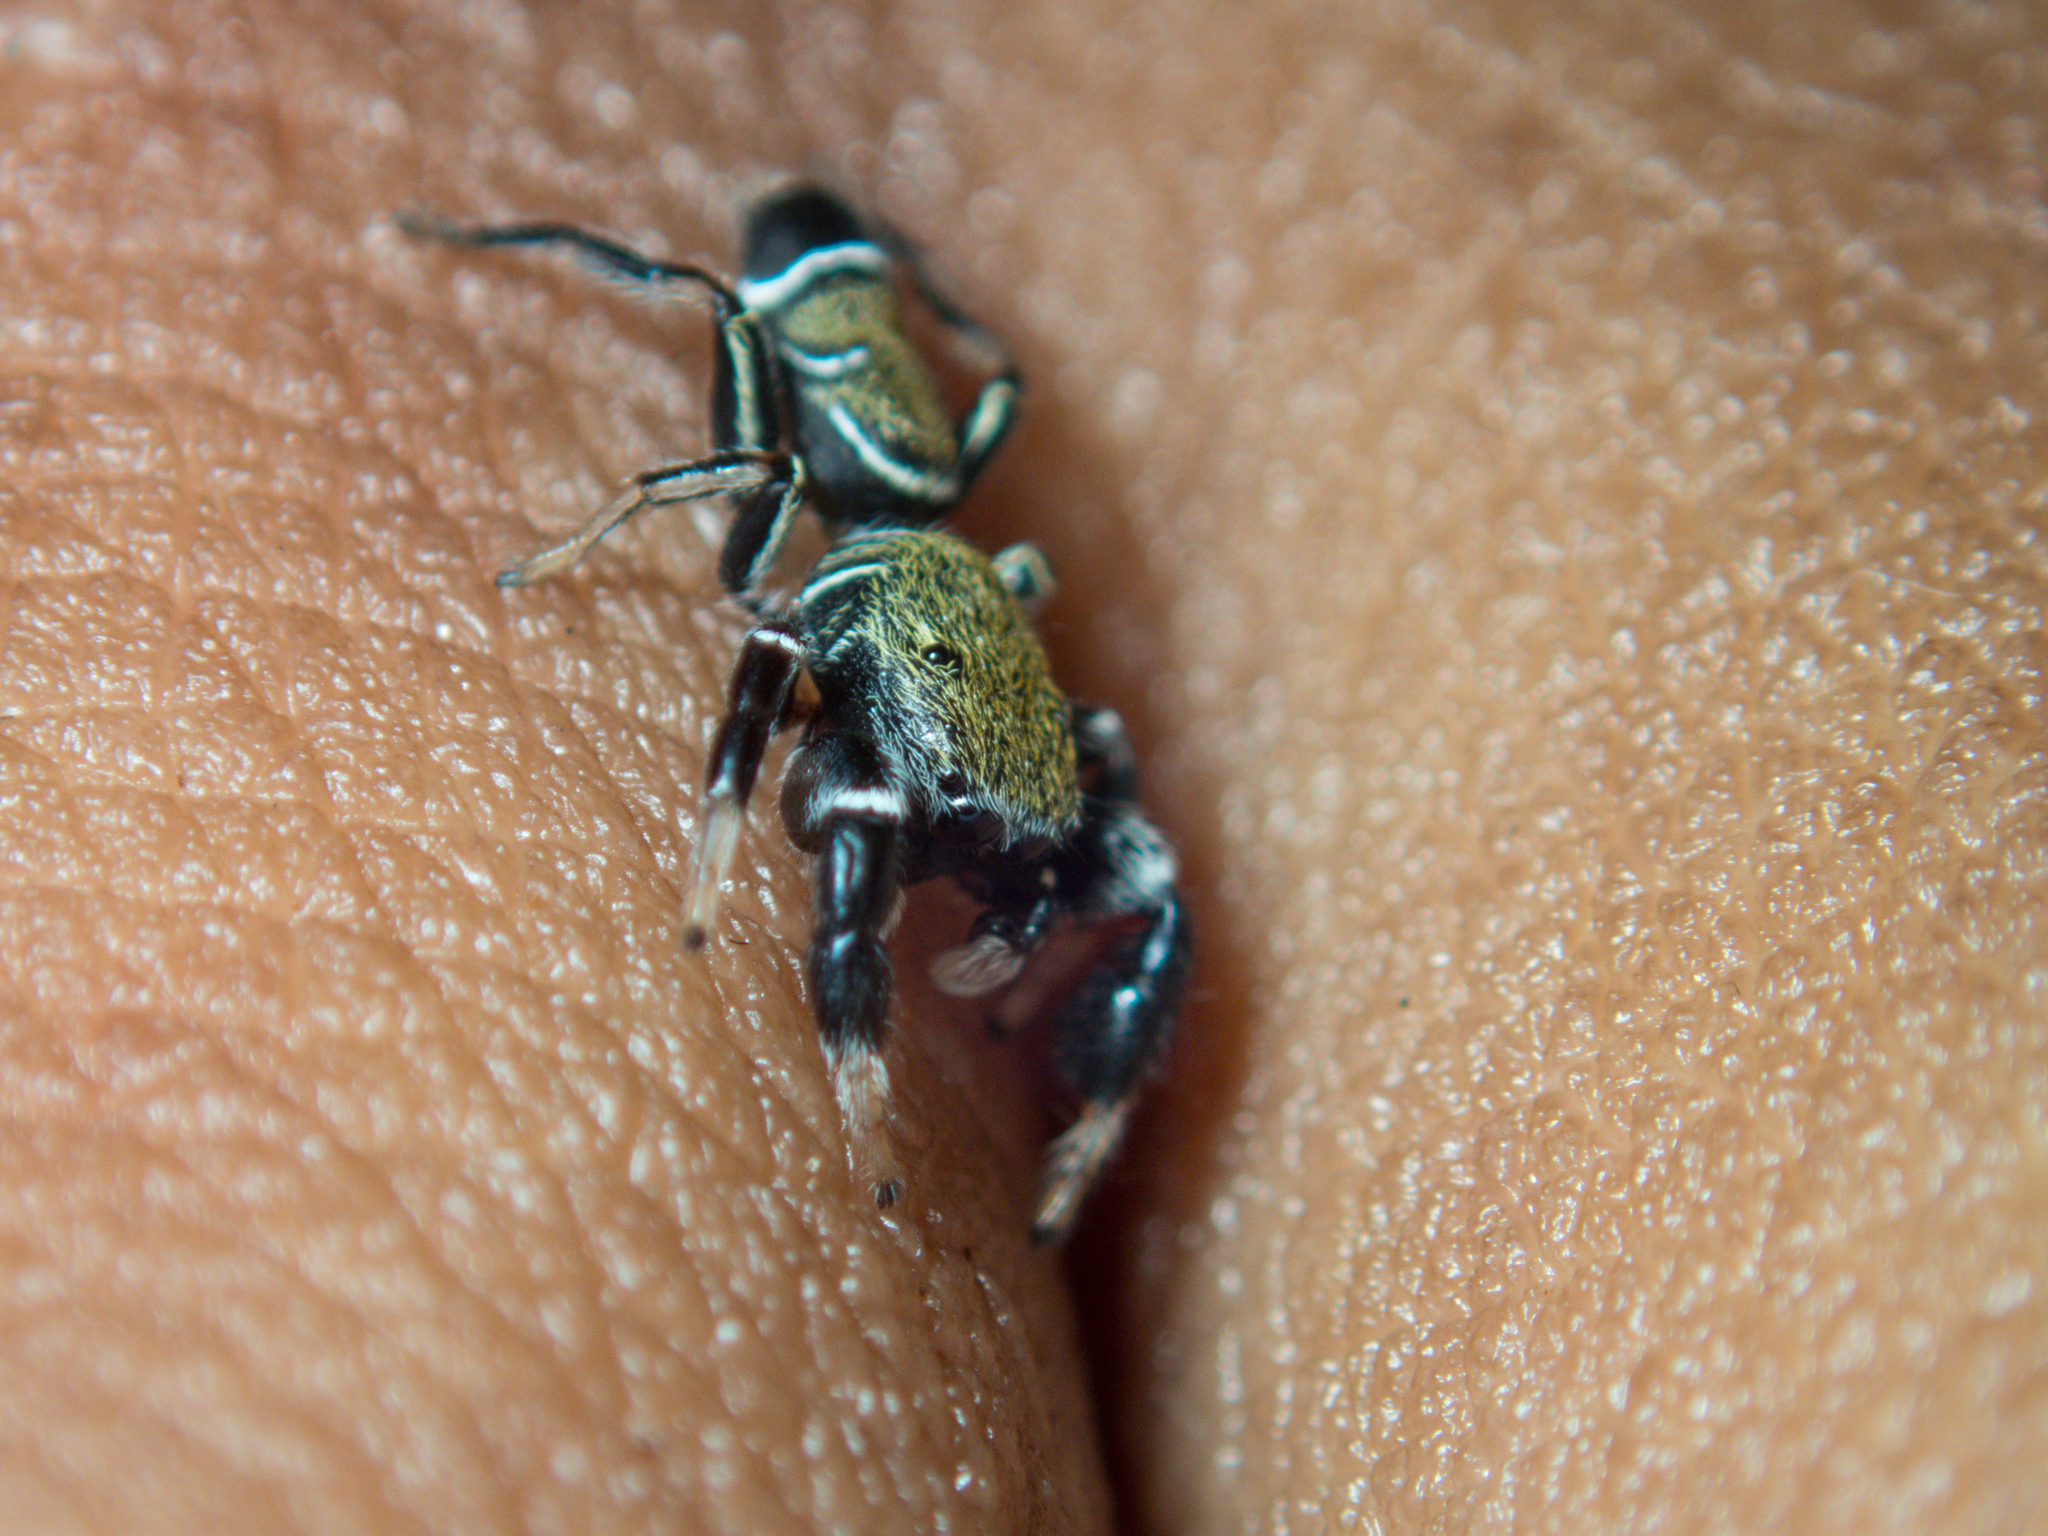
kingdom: Animalia
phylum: Arthropoda
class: Arachnida
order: Araneae
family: Salticidae
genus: Piranthus
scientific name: Piranthus bakau
